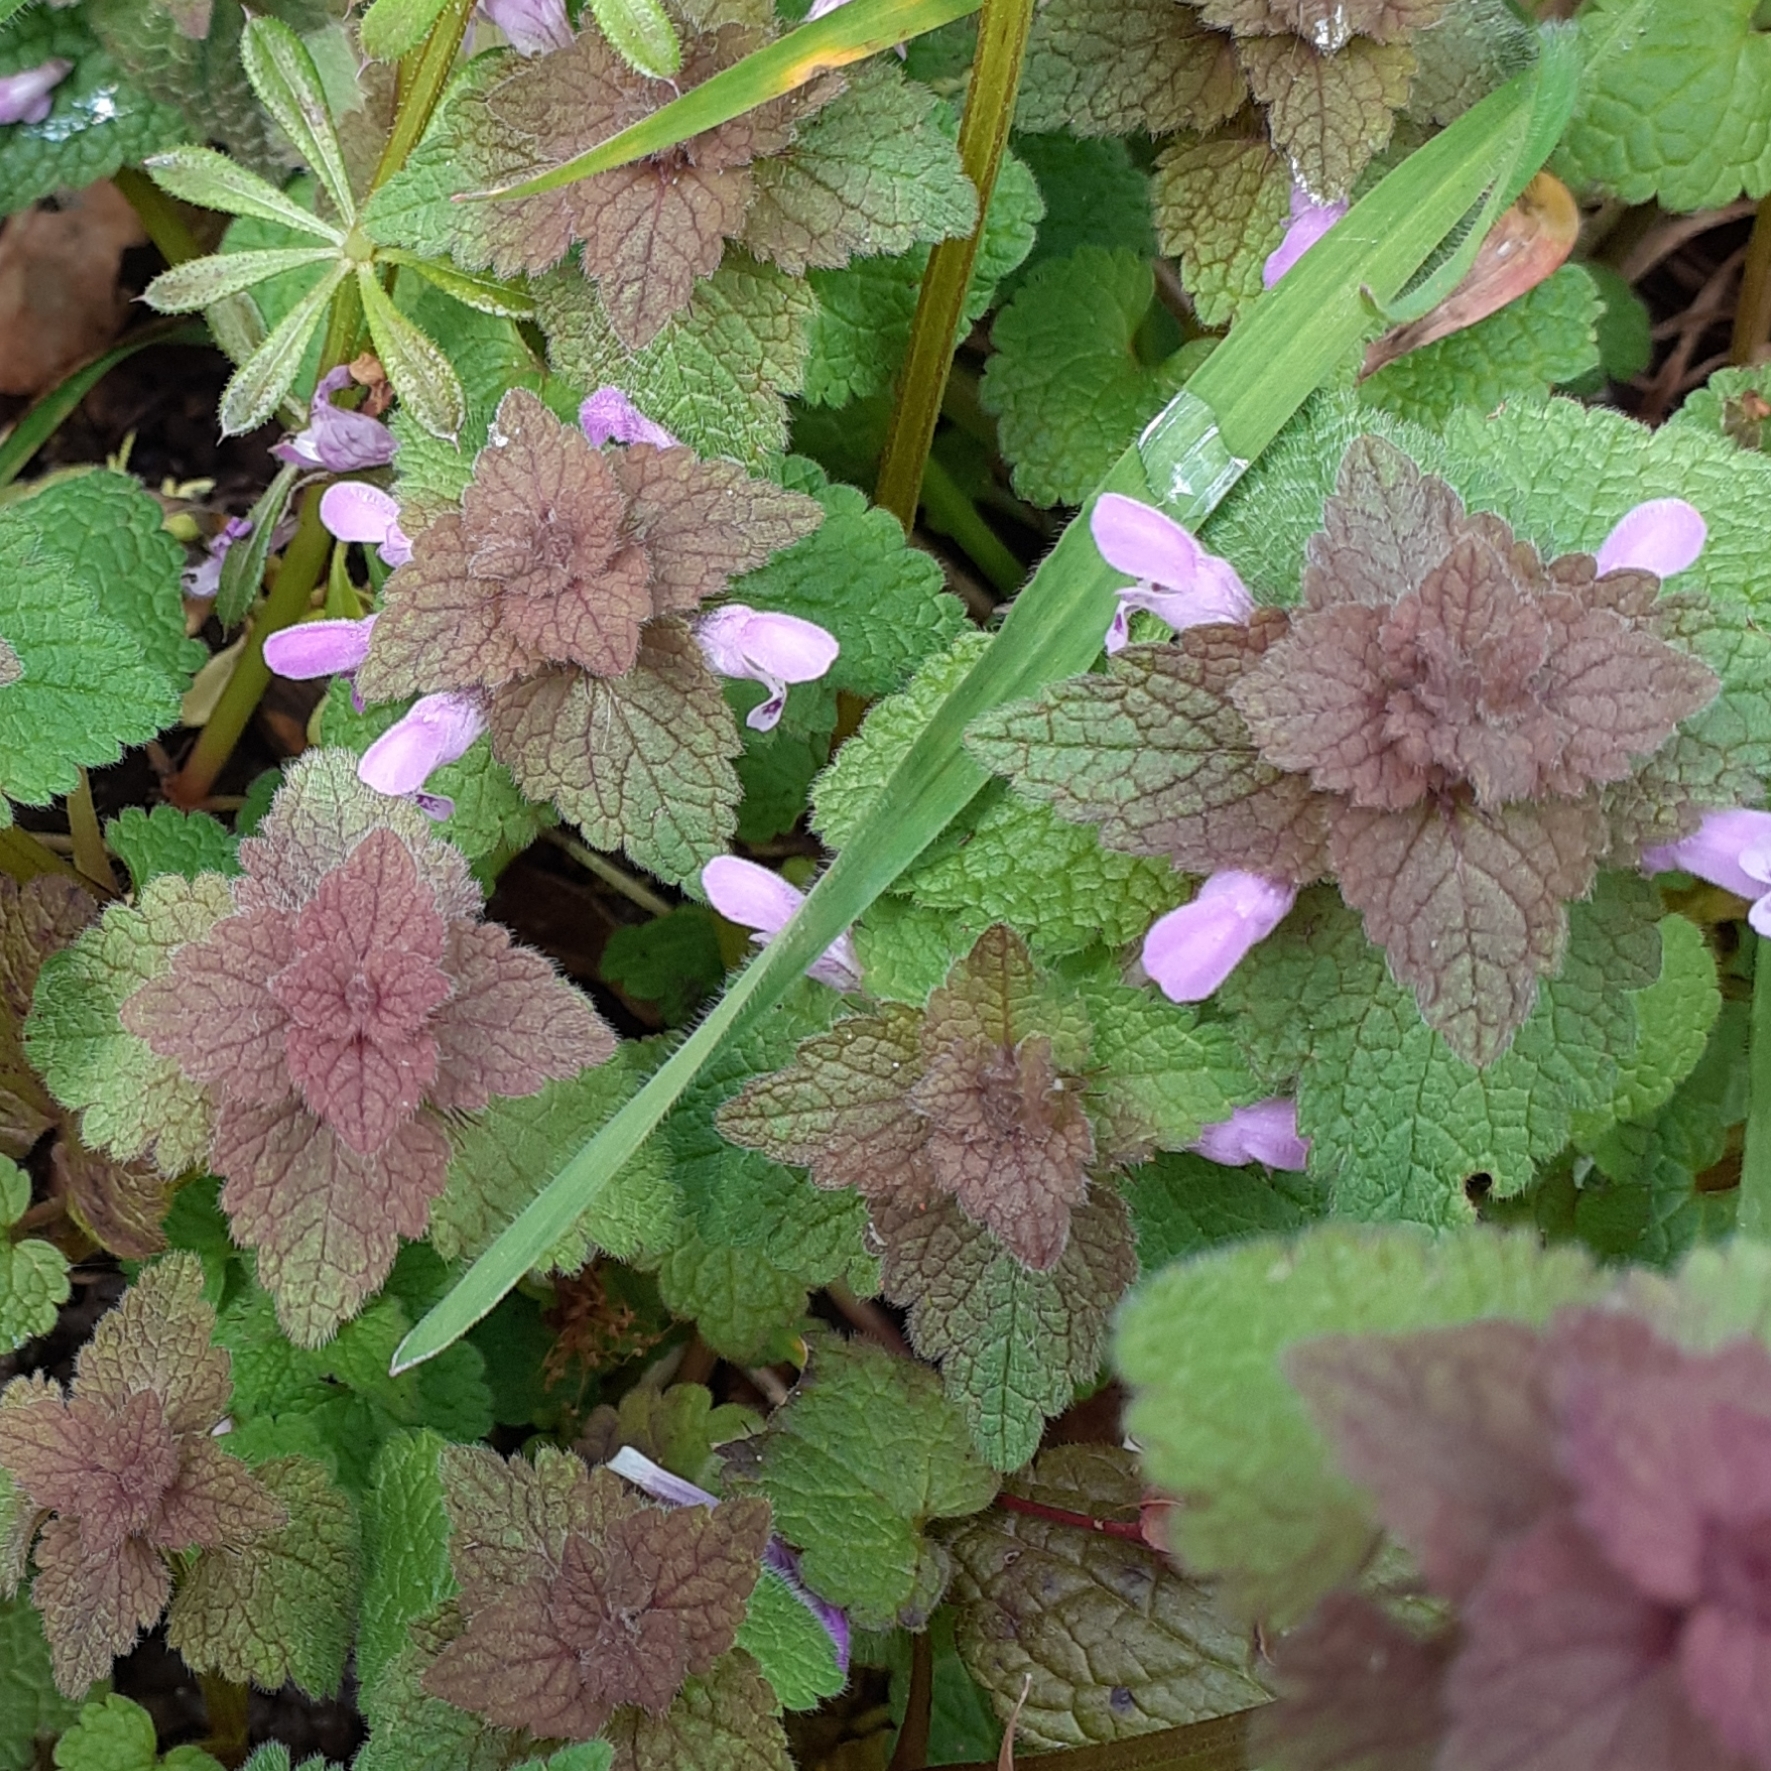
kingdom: Plantae
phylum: Tracheophyta
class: Magnoliopsida
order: Lamiales
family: Lamiaceae
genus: Lamium
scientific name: Lamium purpureum
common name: Red dead-nettle
